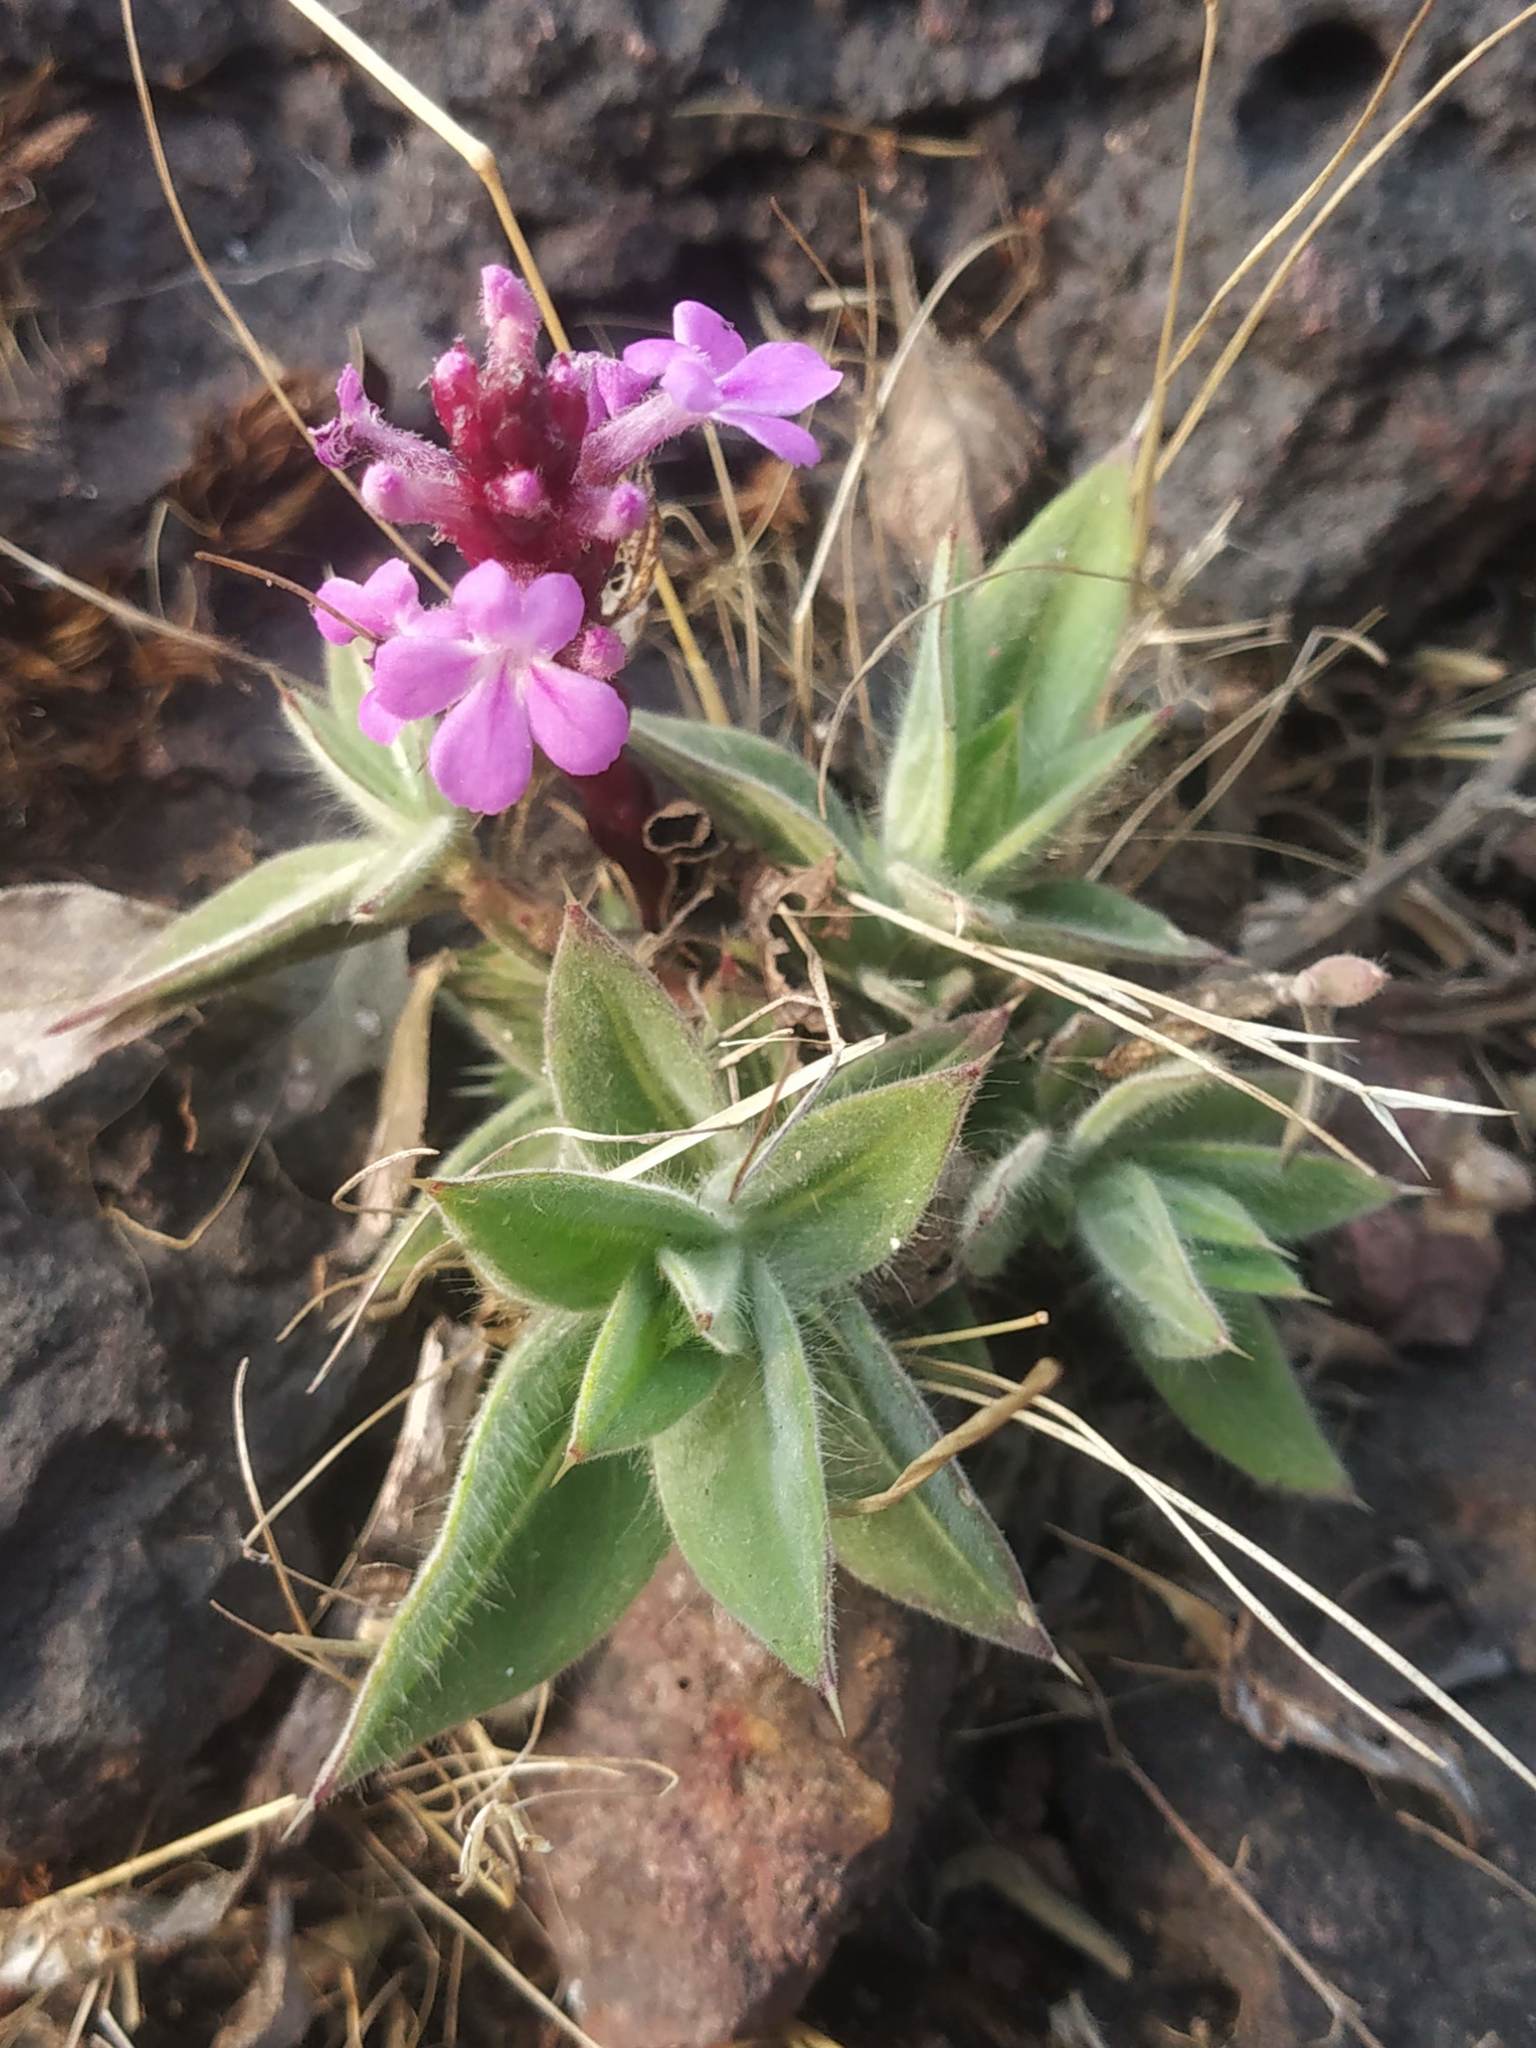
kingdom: Plantae
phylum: Tracheophyta
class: Magnoliopsida
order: Lamiales
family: Orobanchaceae
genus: Striga
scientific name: Striga gesnerioides
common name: Cowpea witchweed
